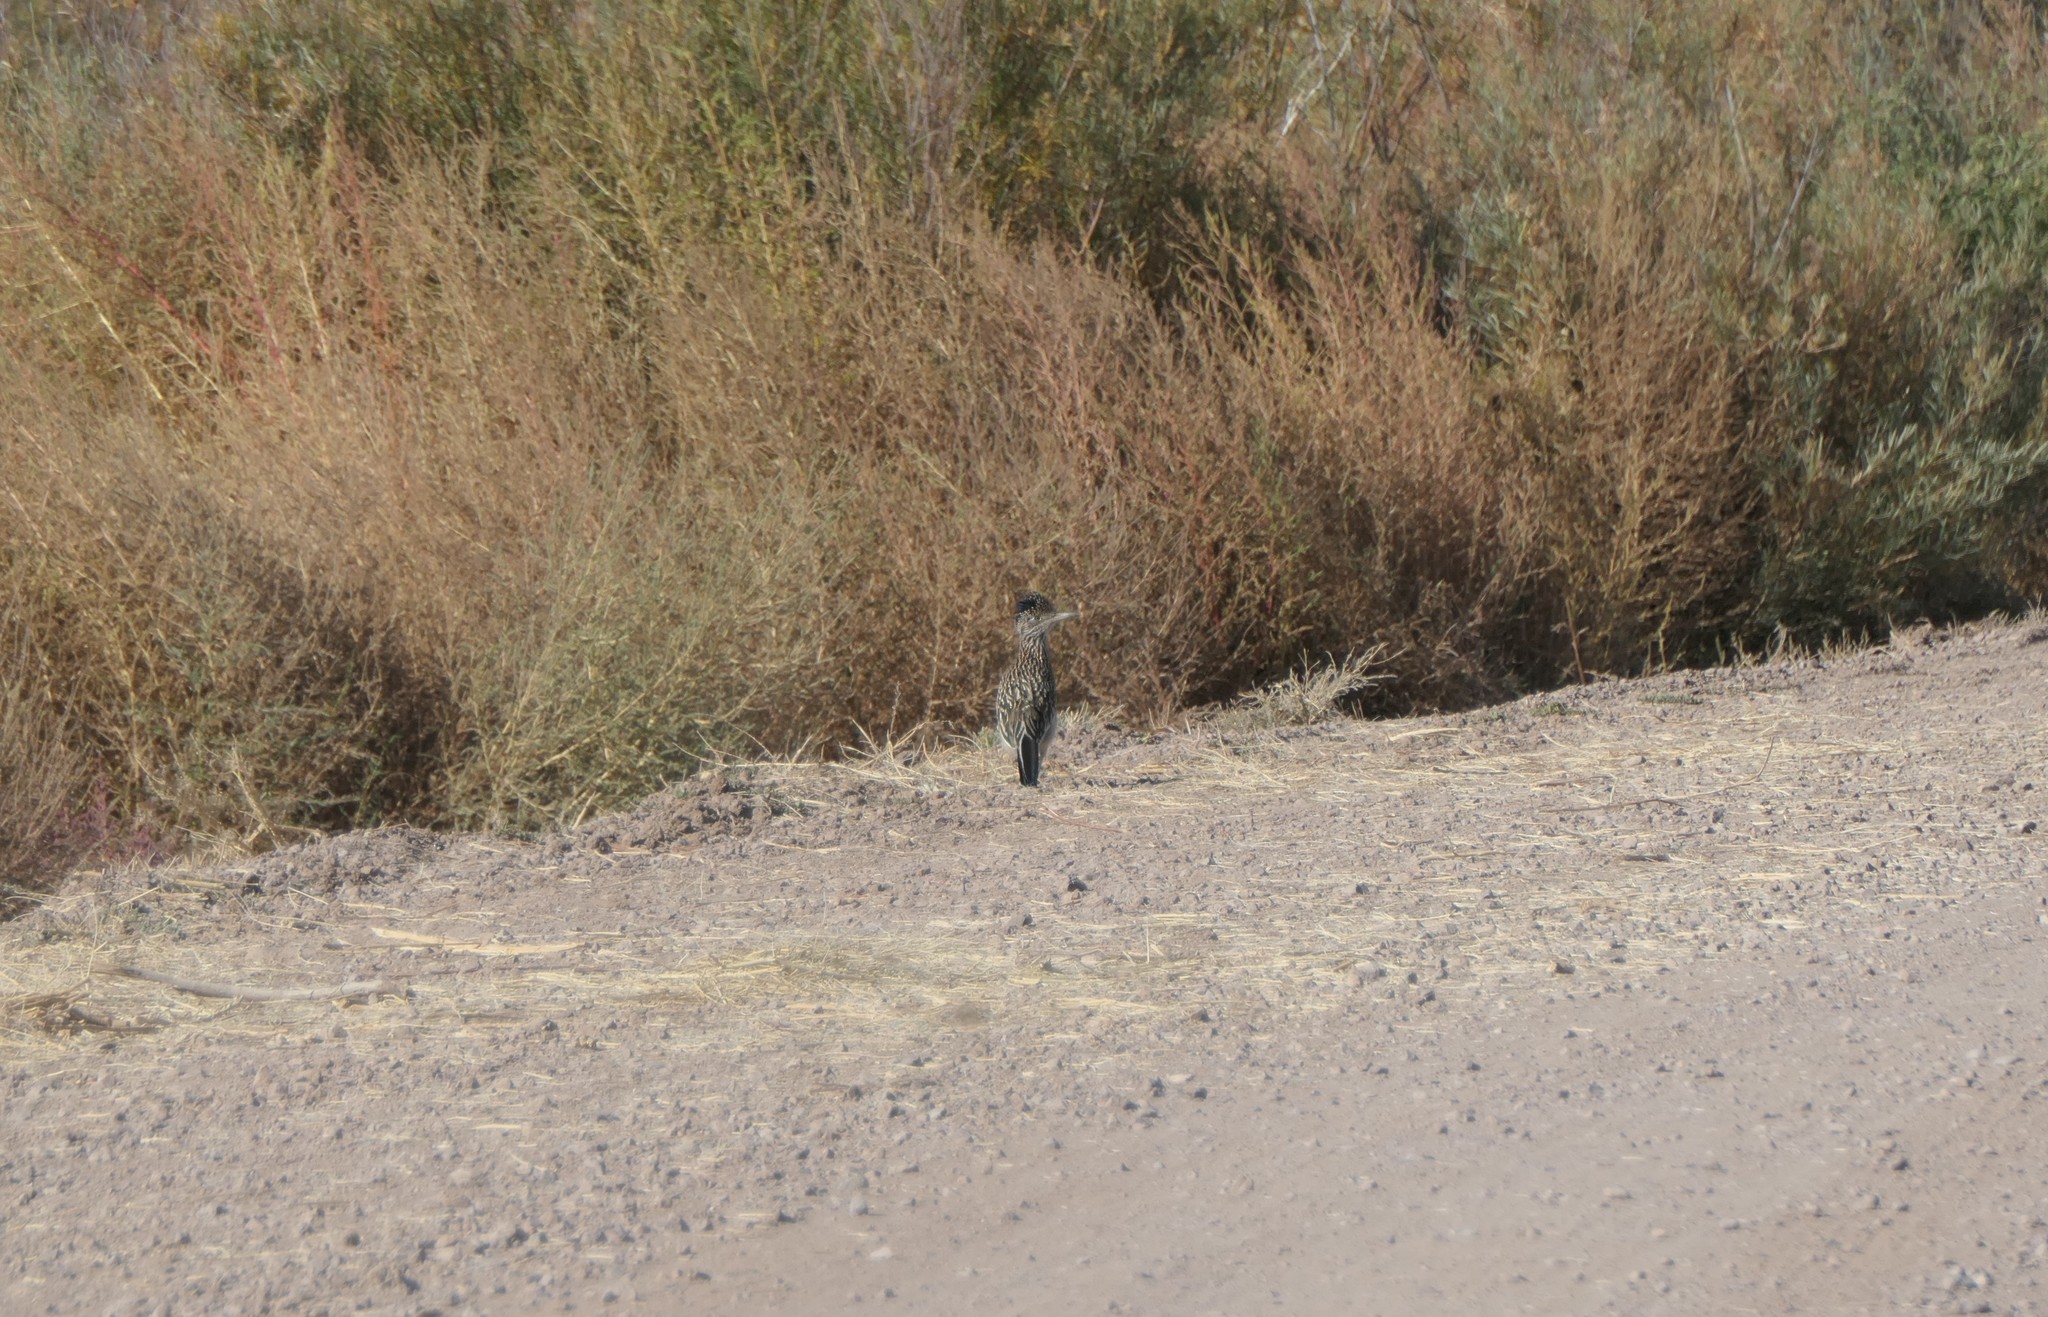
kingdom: Animalia
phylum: Chordata
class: Aves
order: Cuculiformes
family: Cuculidae
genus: Geococcyx
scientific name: Geococcyx californianus
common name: Greater roadrunner
